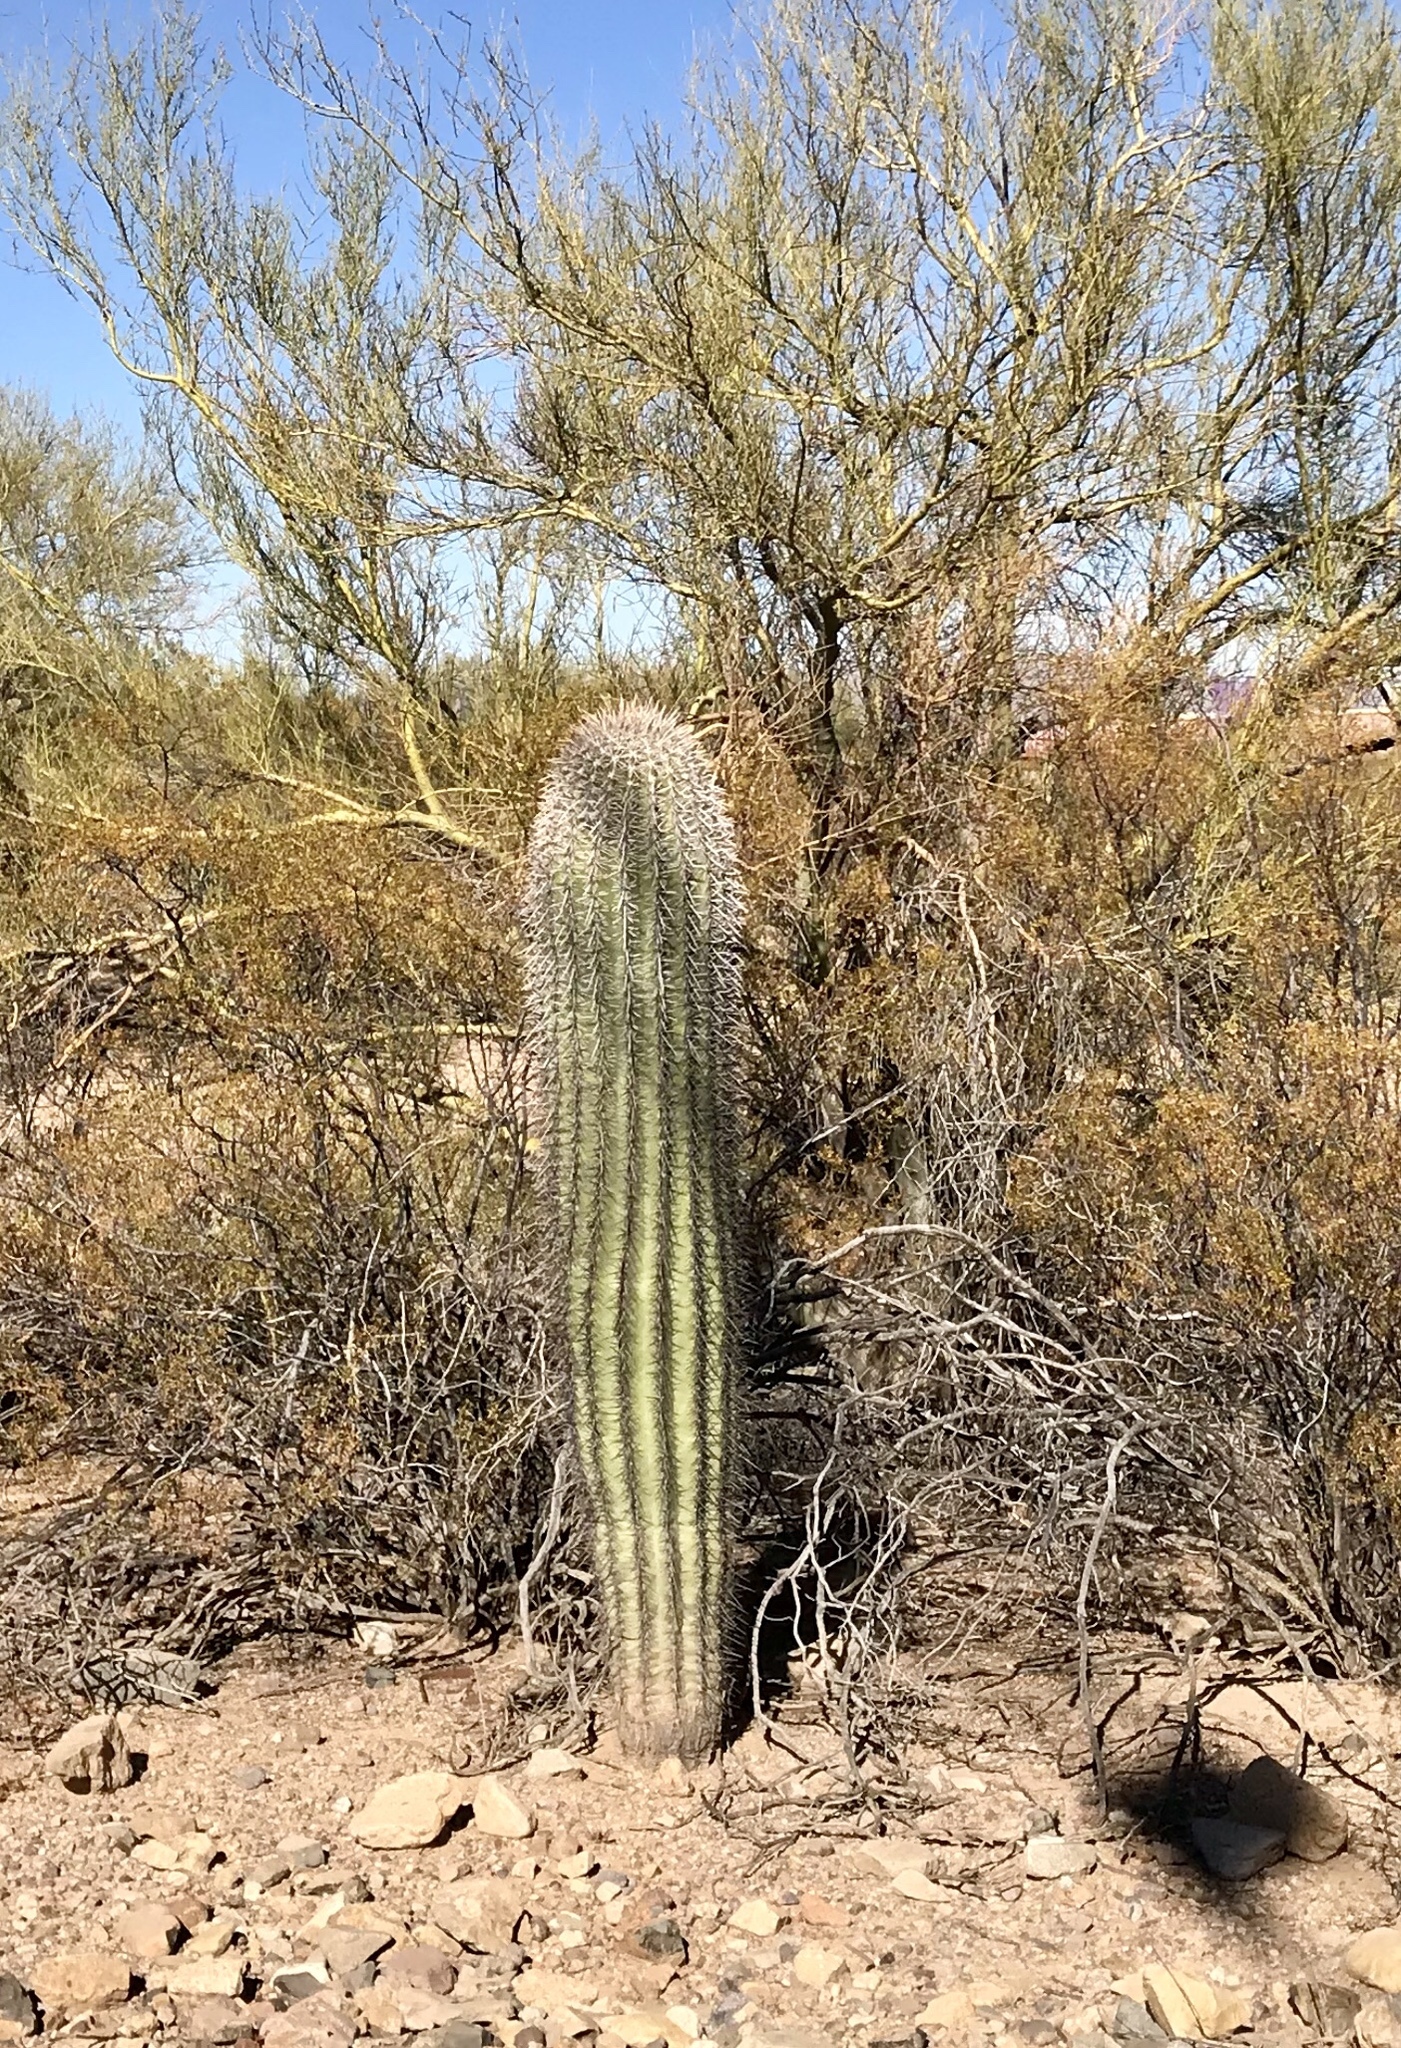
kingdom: Plantae
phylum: Tracheophyta
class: Magnoliopsida
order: Caryophyllales
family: Cactaceae
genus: Carnegiea
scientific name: Carnegiea gigantea
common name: Saguaro
